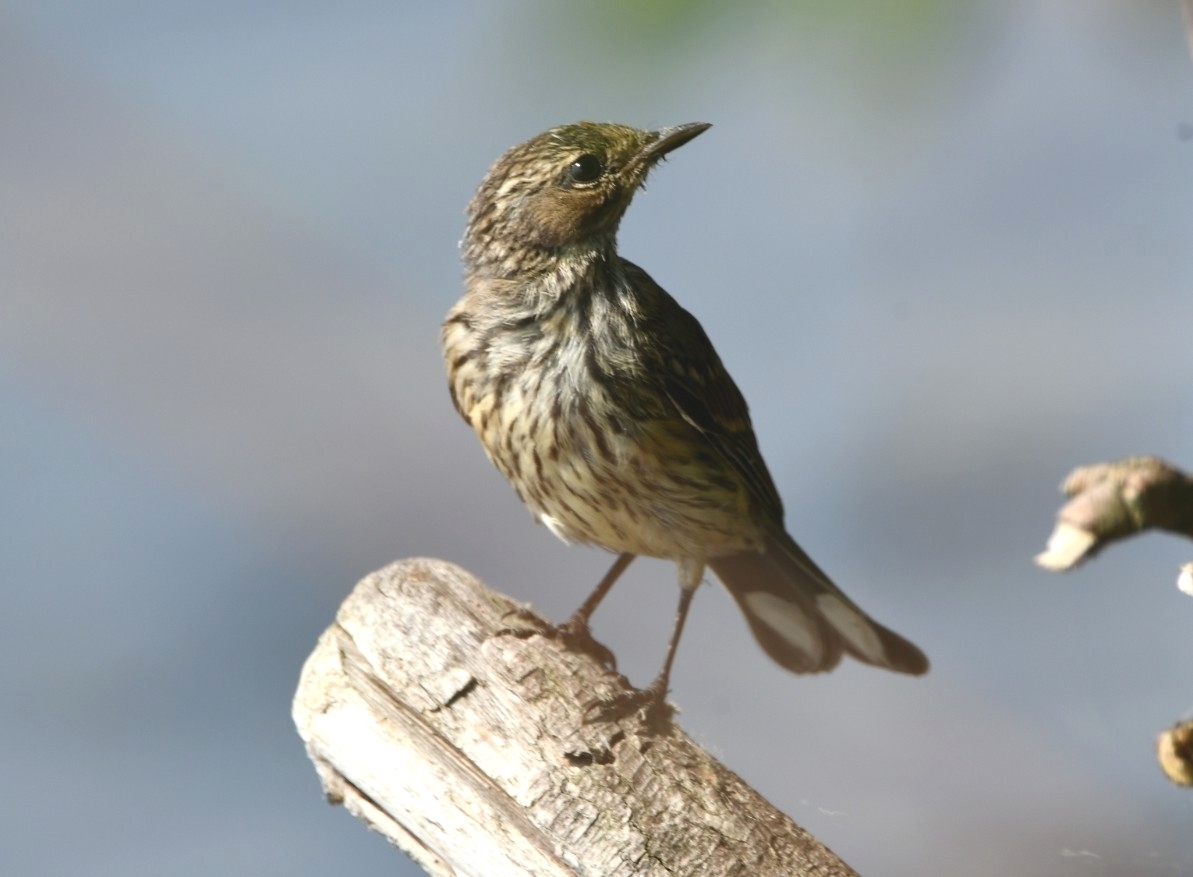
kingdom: Animalia
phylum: Chordata
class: Aves
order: Passeriformes
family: Parulidae
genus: Setophaga
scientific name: Setophaga coronata
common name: Myrtle warbler
